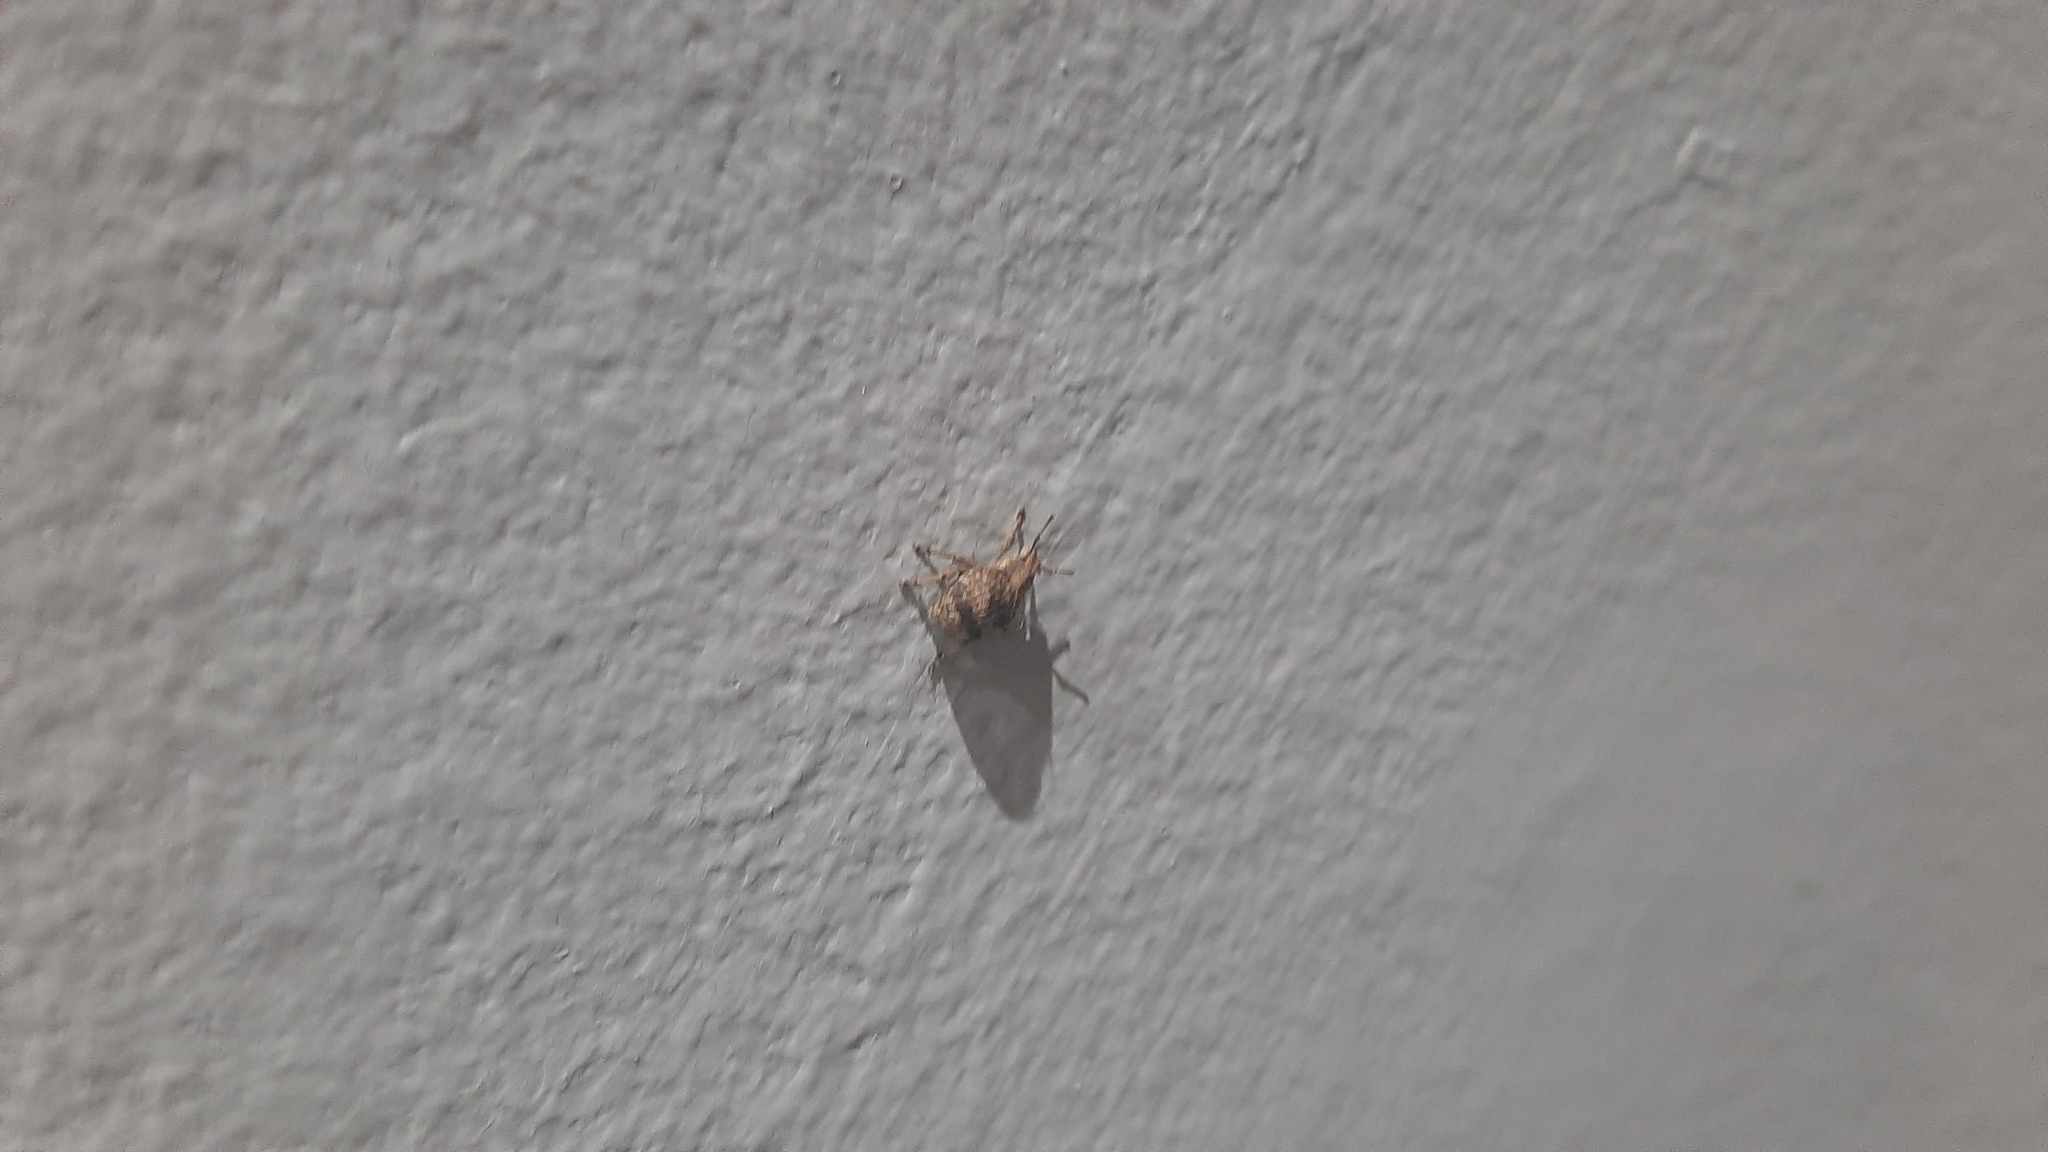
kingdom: Animalia
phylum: Arthropoda
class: Insecta
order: Coleoptera
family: Curculionidae
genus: Pseudocneorhinus
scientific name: Pseudocneorhinus bifasciatus
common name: Two-banded japanese weevil
